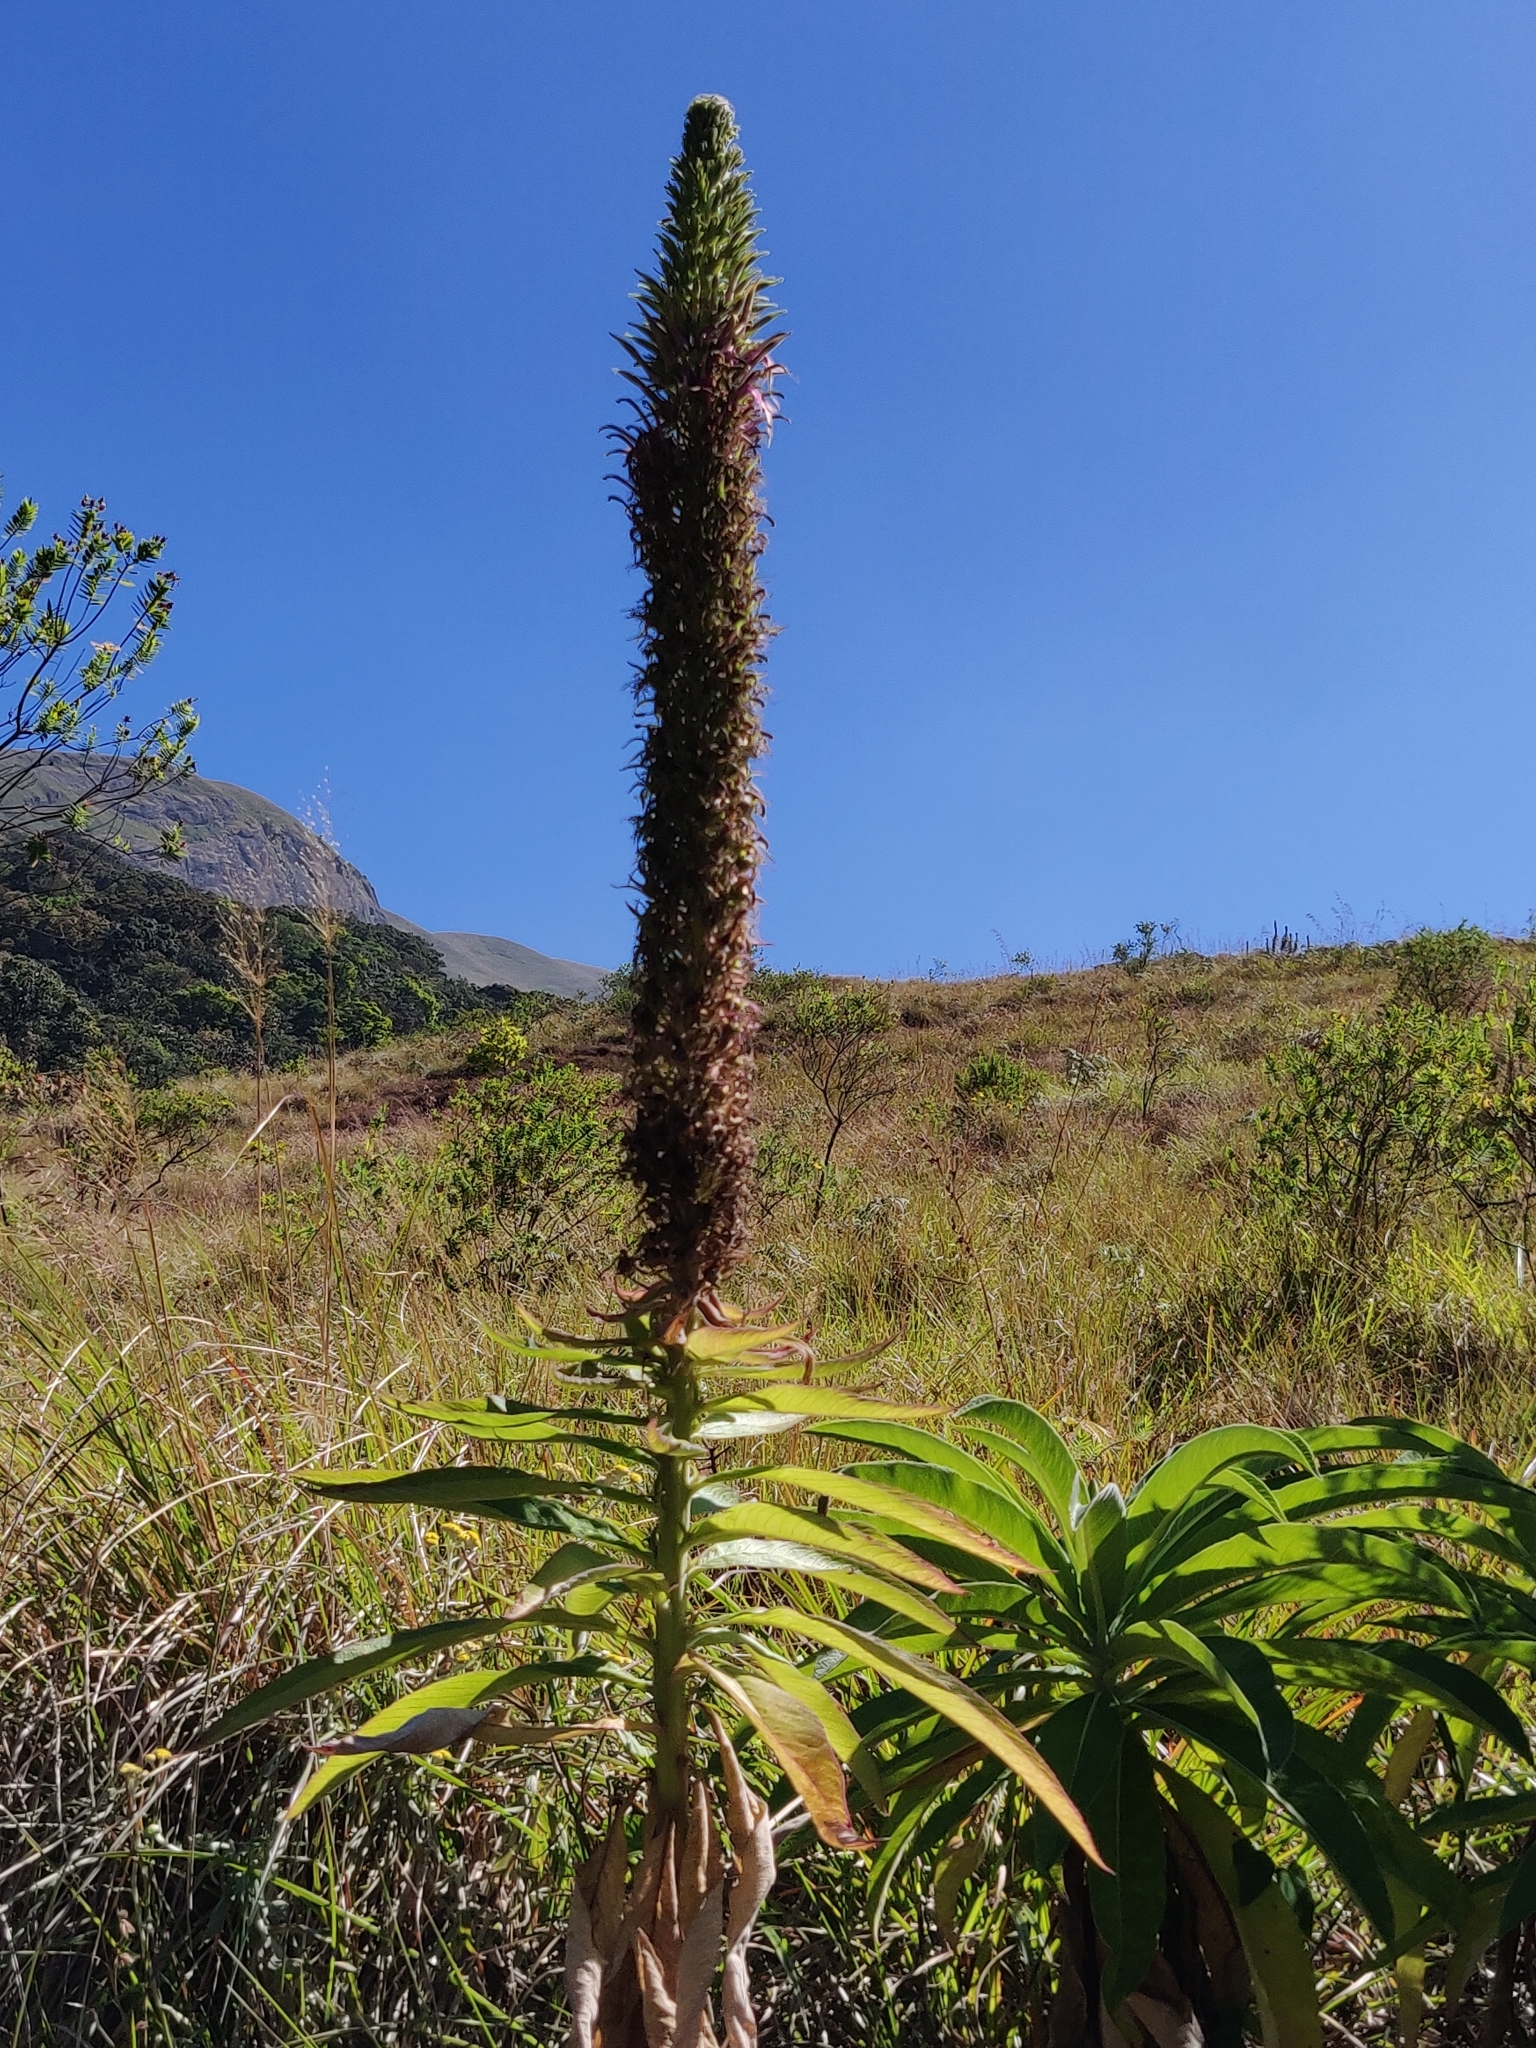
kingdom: Plantae
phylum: Tracheophyta
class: Magnoliopsida
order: Asterales
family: Campanulaceae
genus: Lobelia
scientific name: Lobelia leschenaultiana
